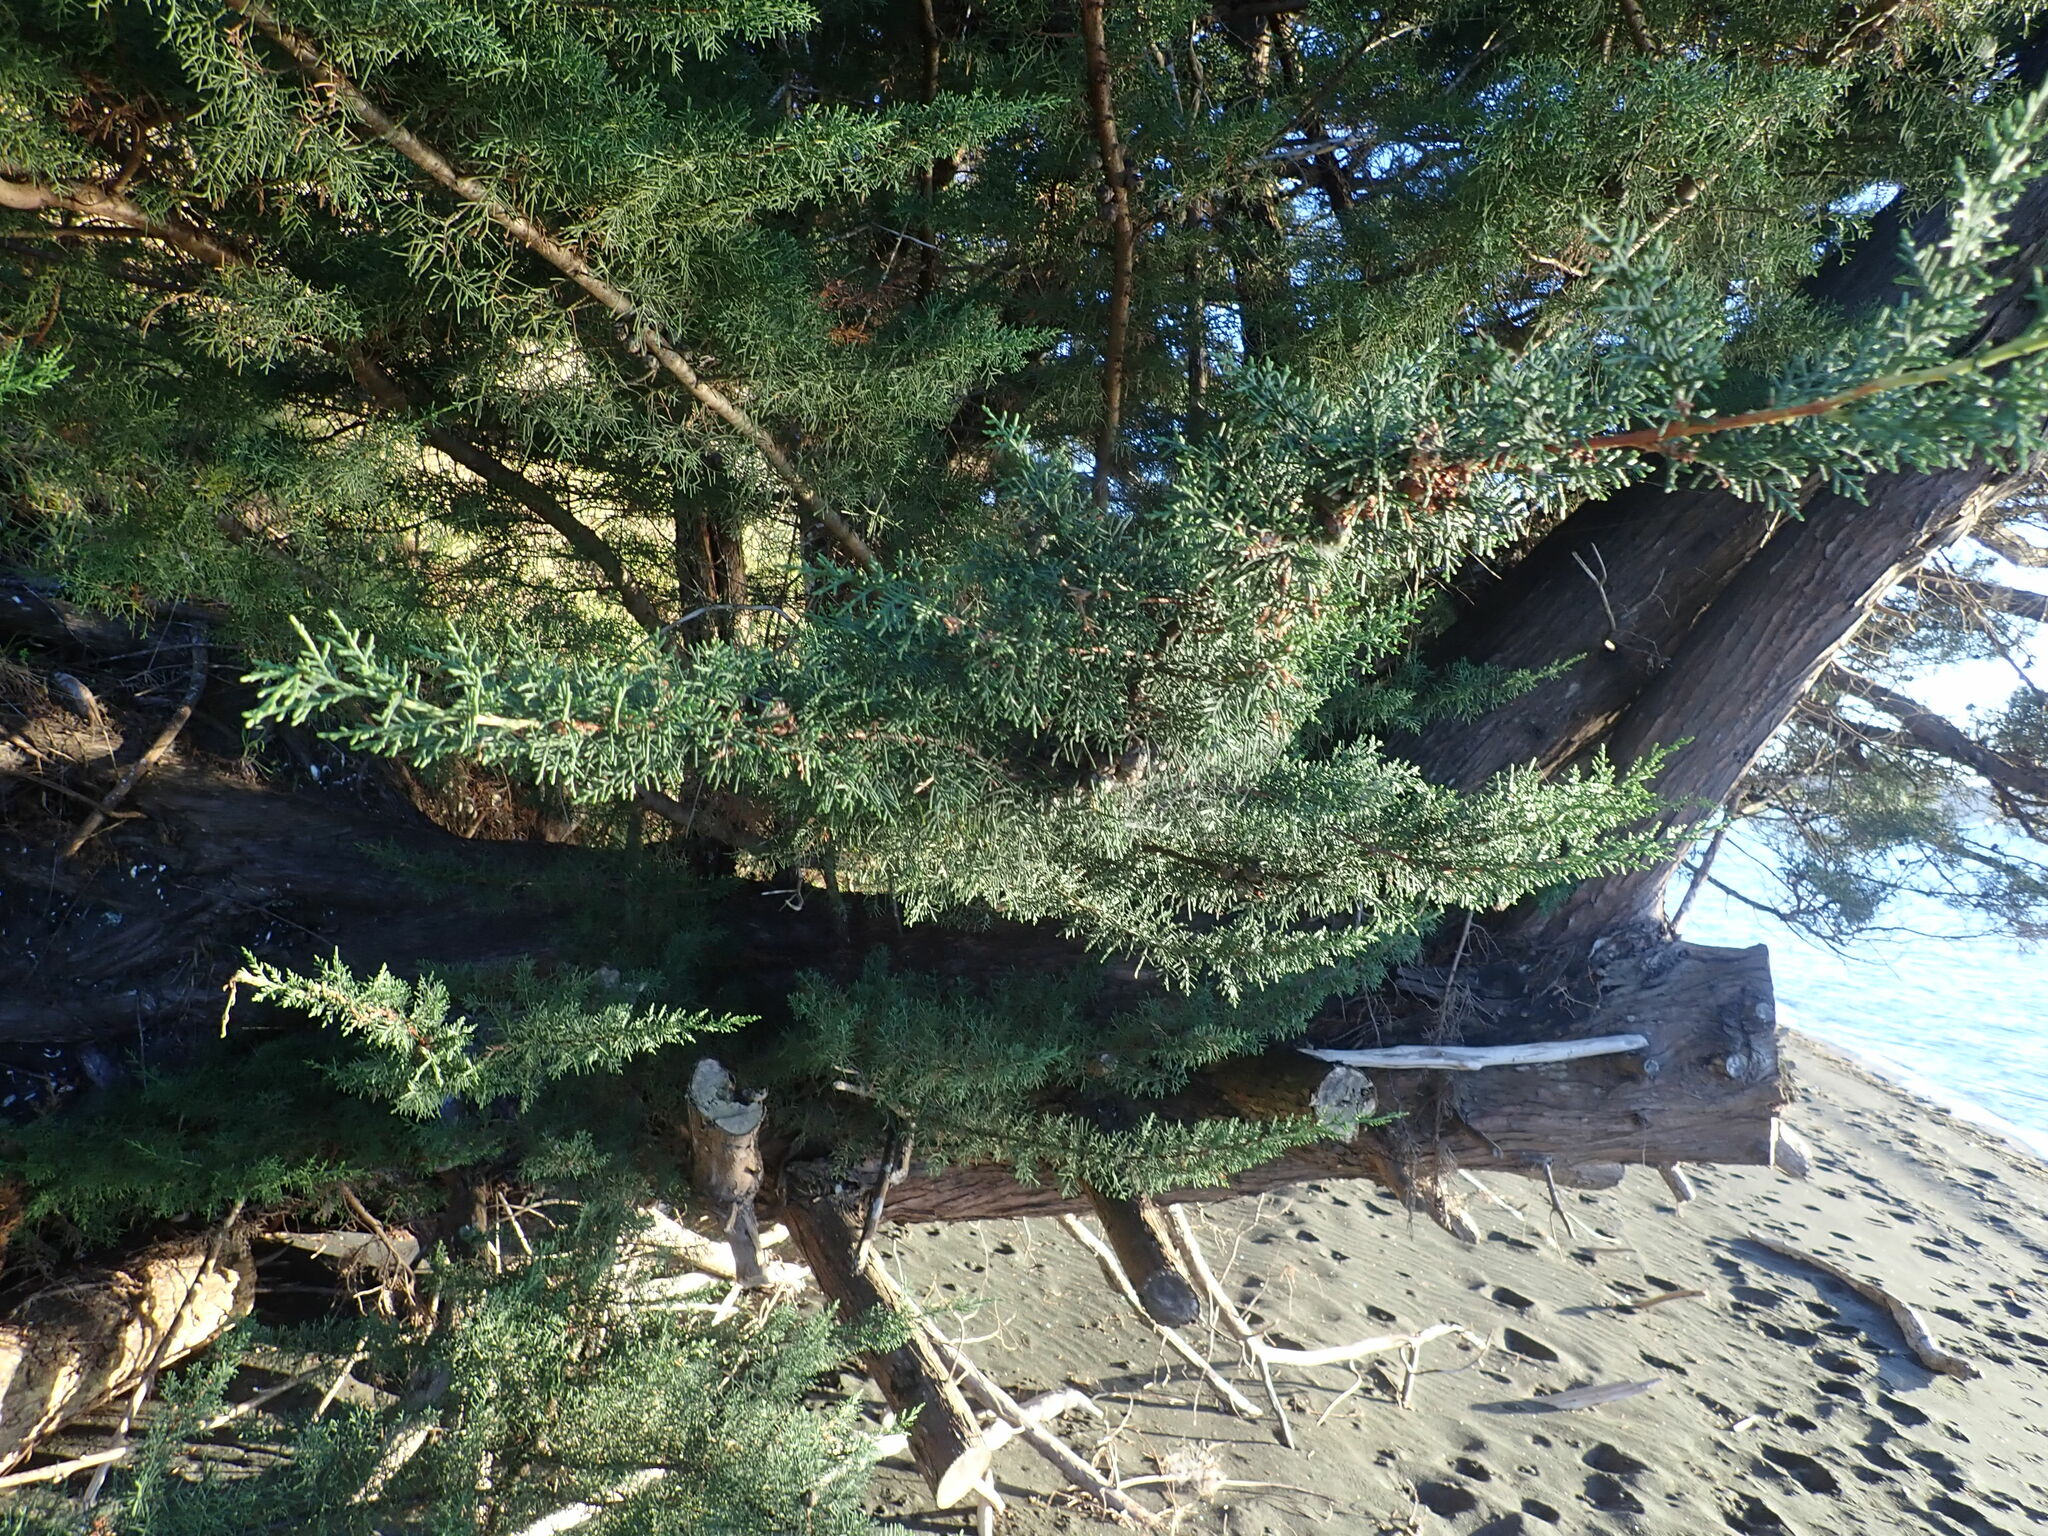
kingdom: Plantae
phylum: Tracheophyta
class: Pinopsida
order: Pinales
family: Cupressaceae
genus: Cupressus
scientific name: Cupressus macrocarpa
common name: Monterey cypress
